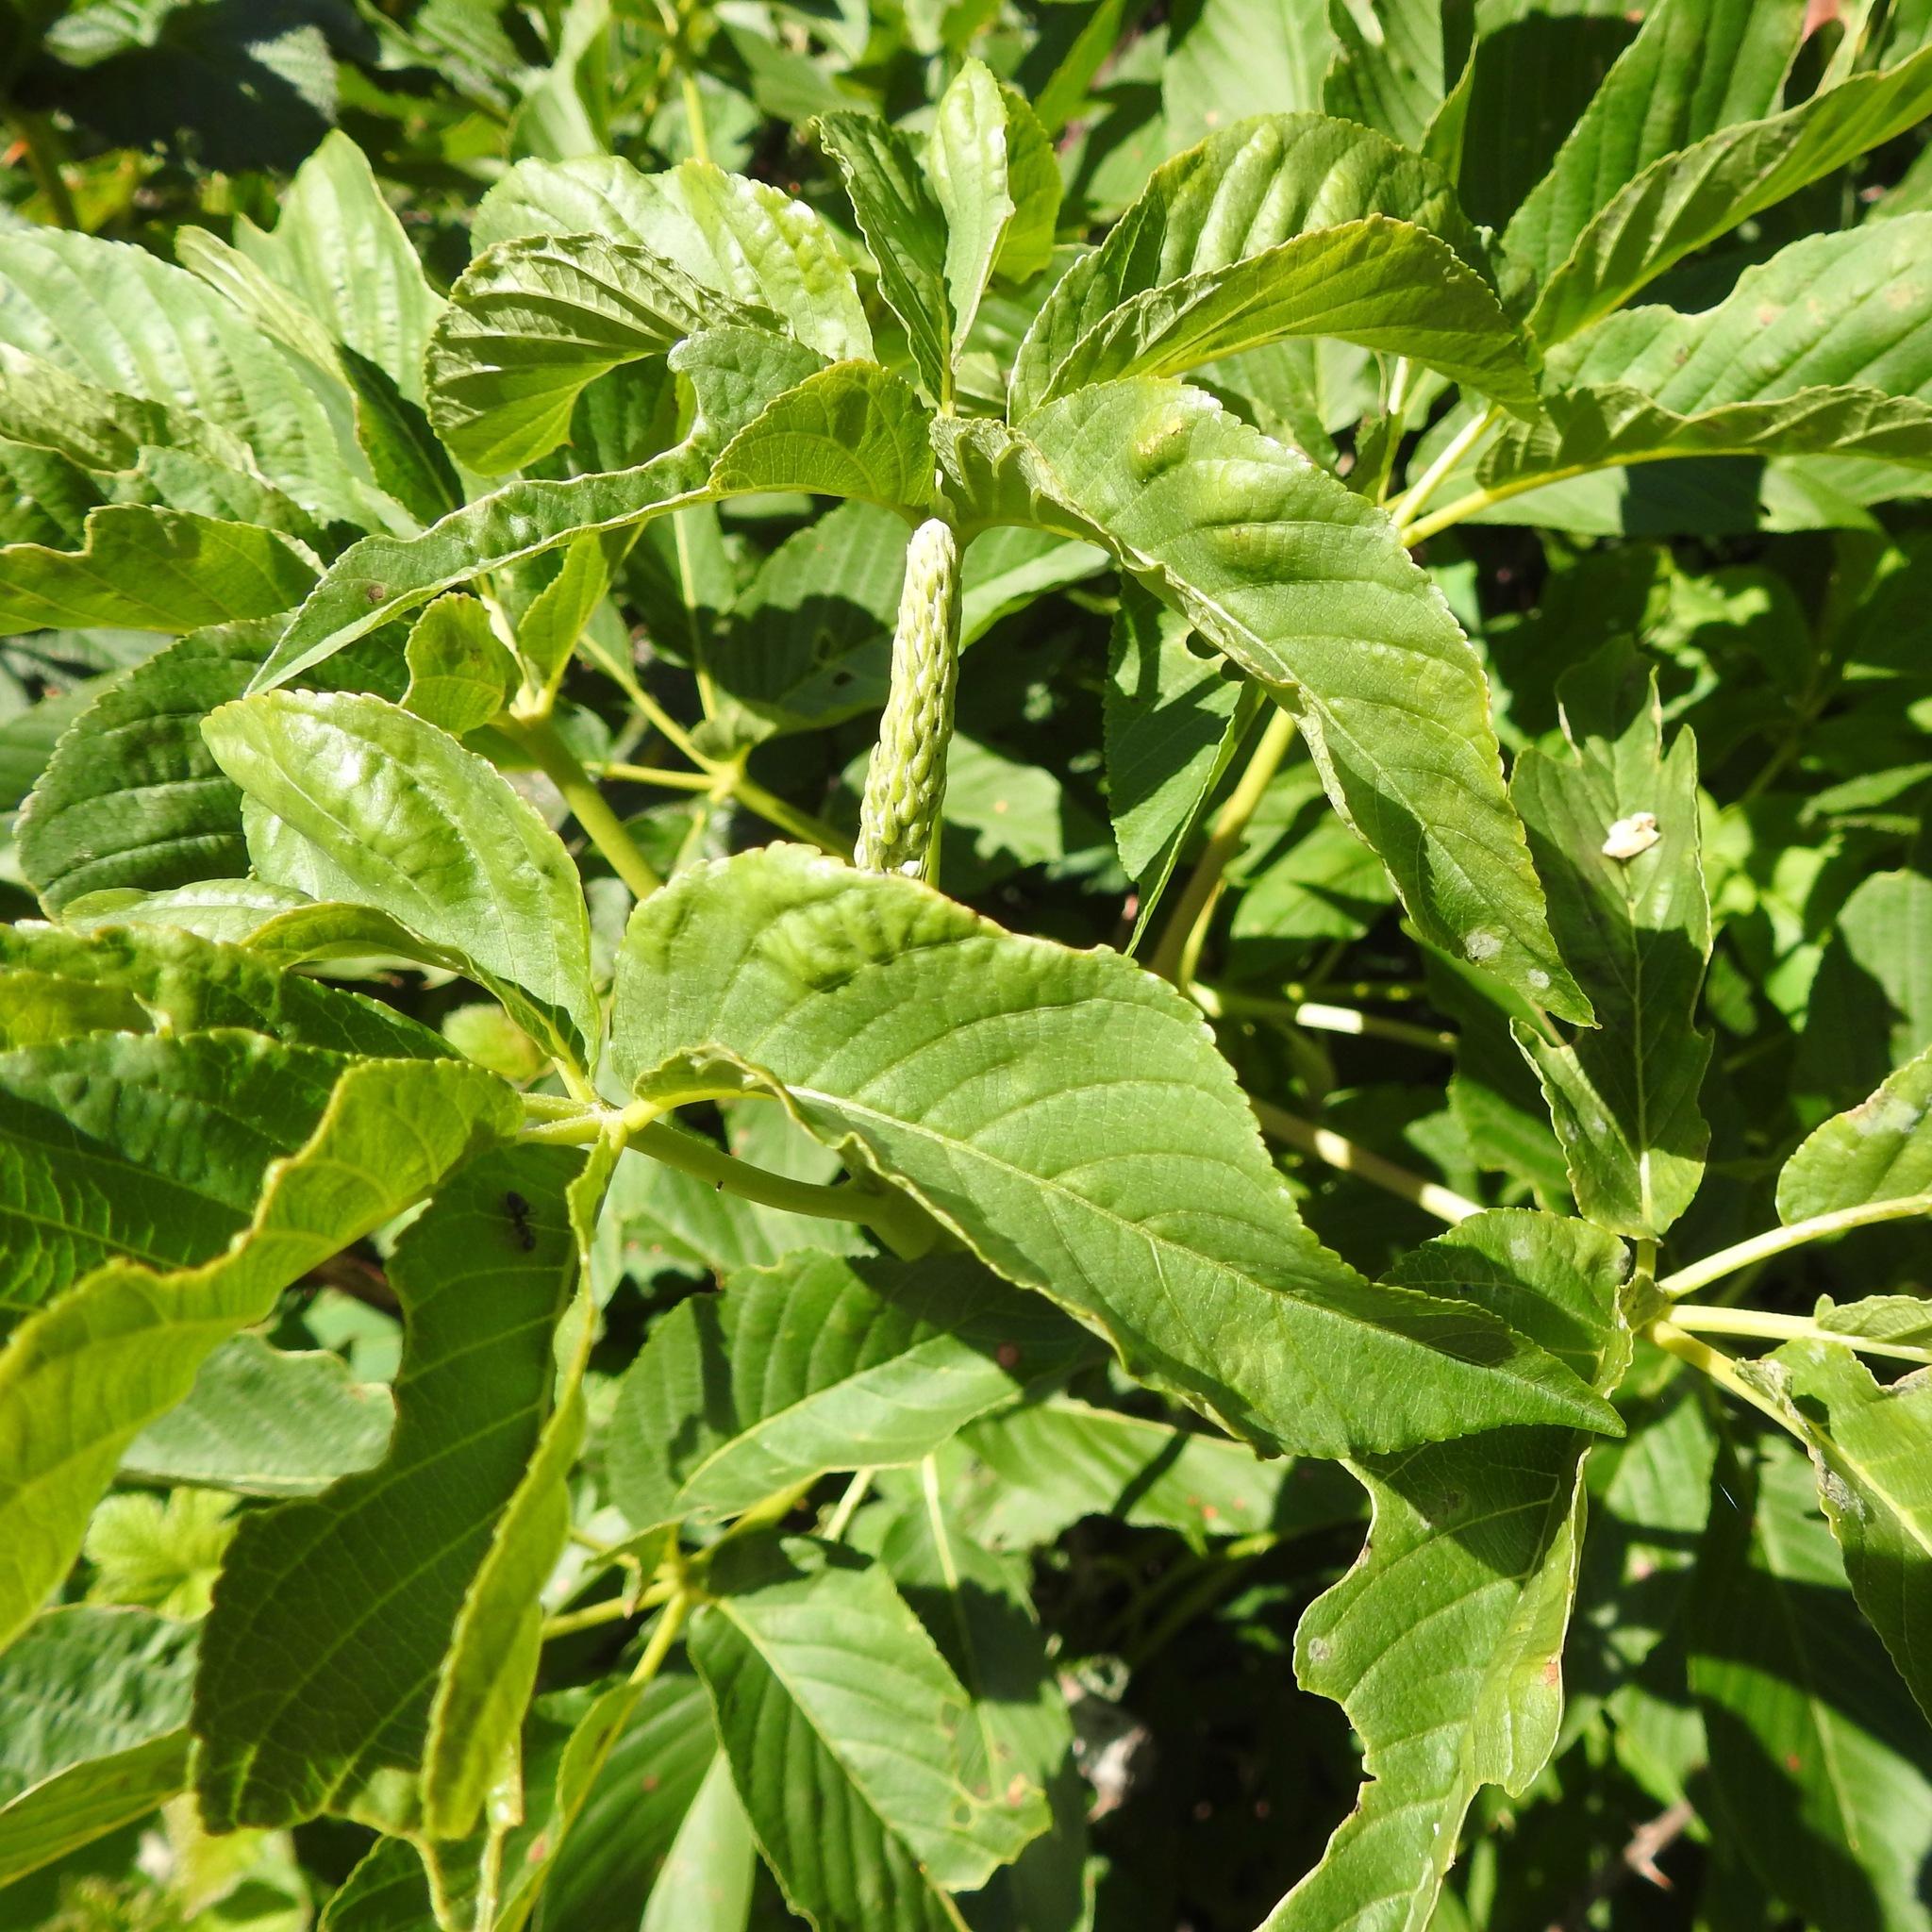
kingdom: Plantae
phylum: Tracheophyta
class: Magnoliopsida
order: Sapindales
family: Sapindaceae
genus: Aesculus
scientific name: Aesculus californica
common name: California buckeye
